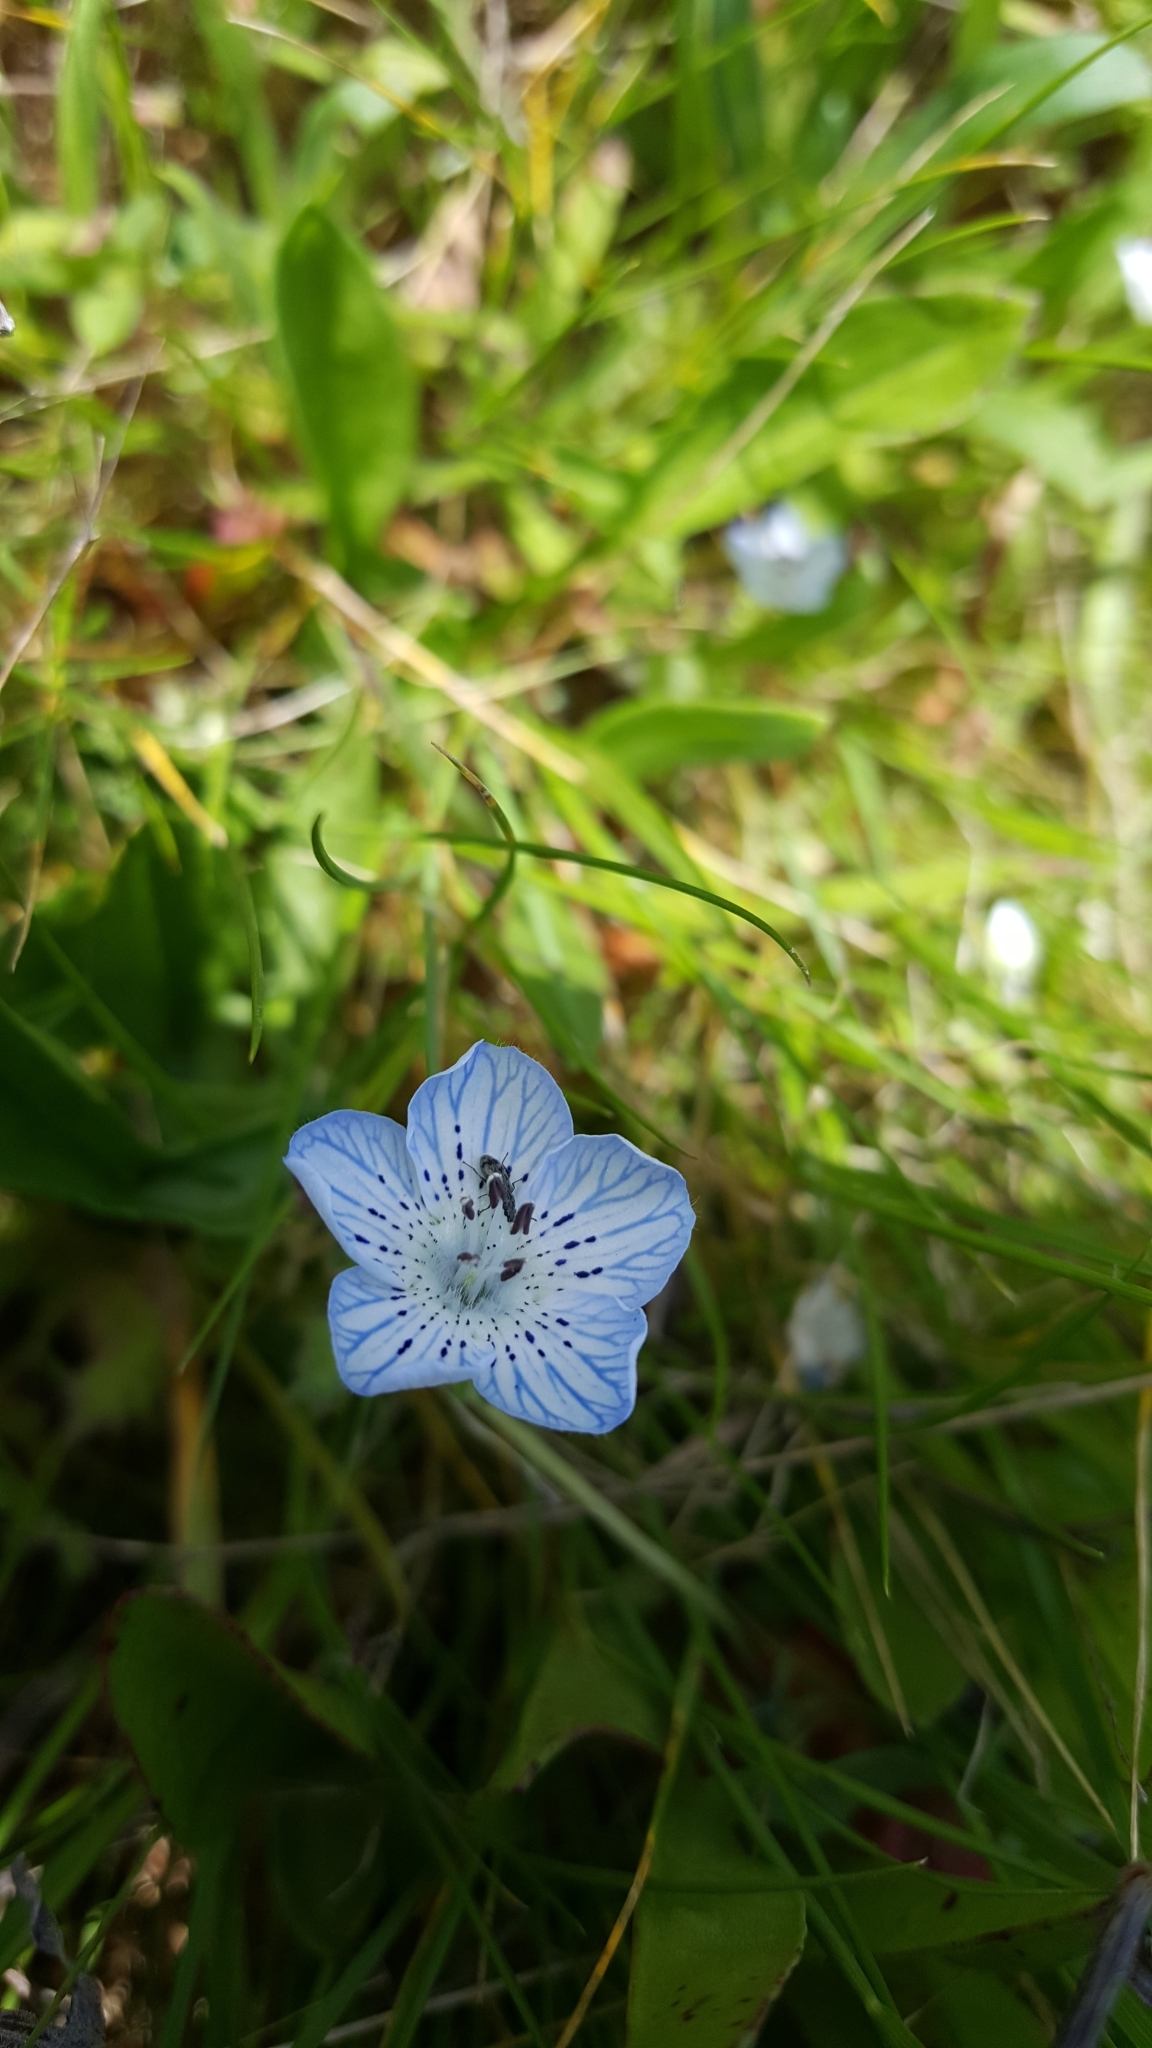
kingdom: Plantae
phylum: Tracheophyta
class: Magnoliopsida
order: Boraginales
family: Hydrophyllaceae
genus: Nemophila
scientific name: Nemophila menziesii
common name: Baby's-blue-eyes
